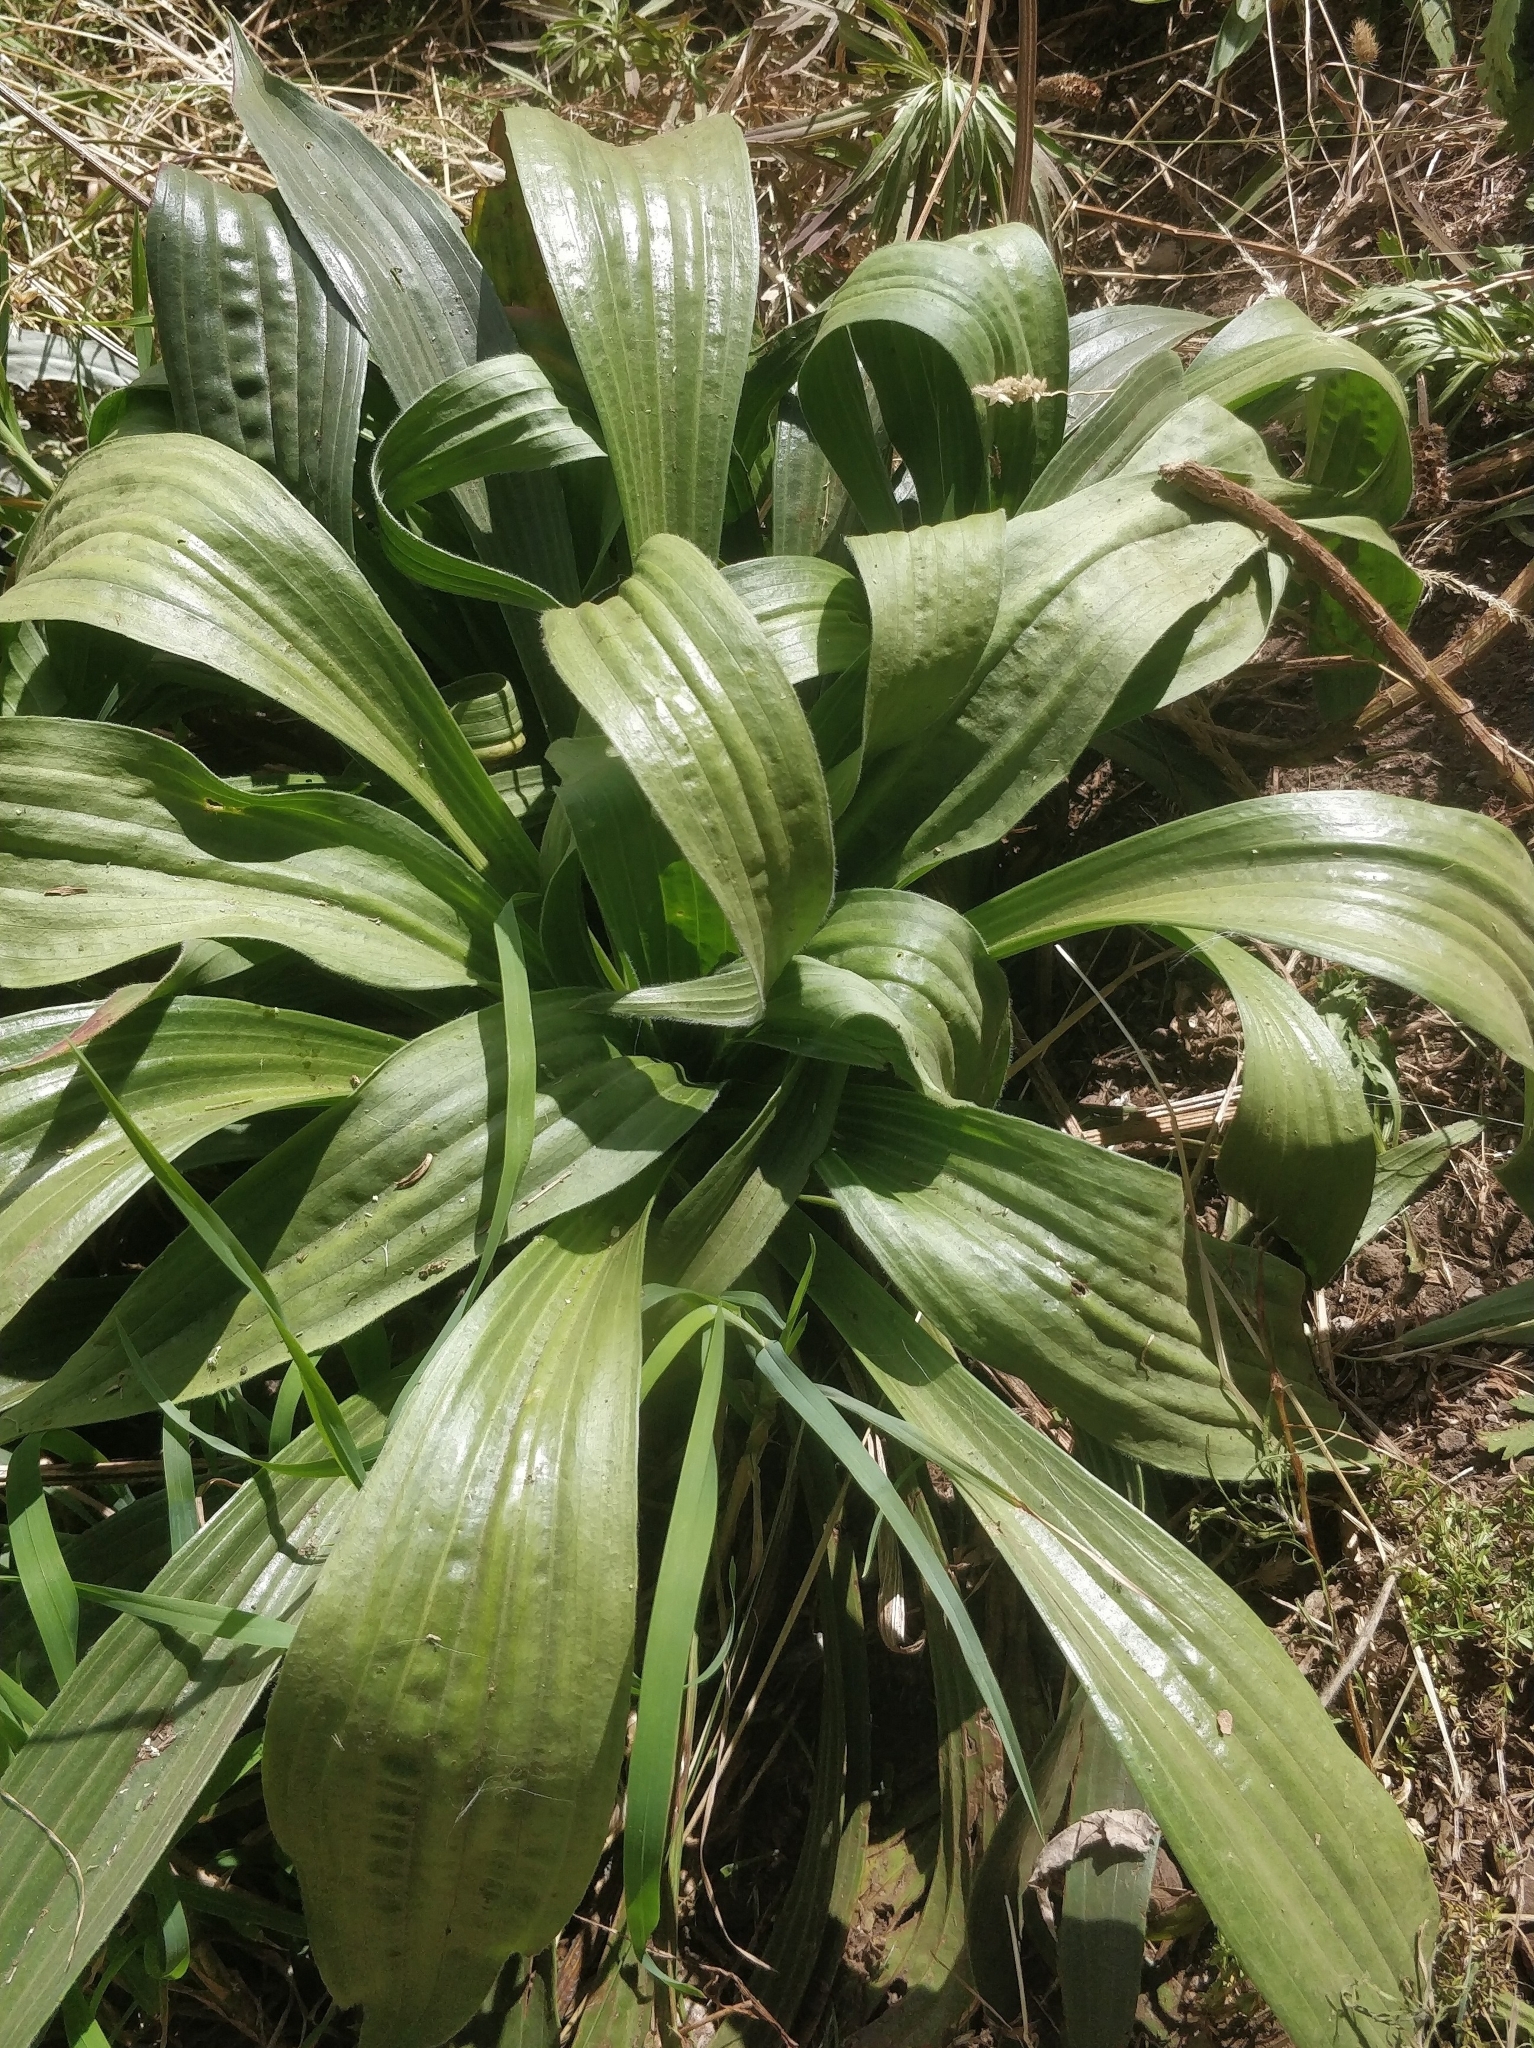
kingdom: Plantae
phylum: Tracheophyta
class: Magnoliopsida
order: Lamiales
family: Plantaginaceae
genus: Plantago
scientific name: Plantago malato-belizii
